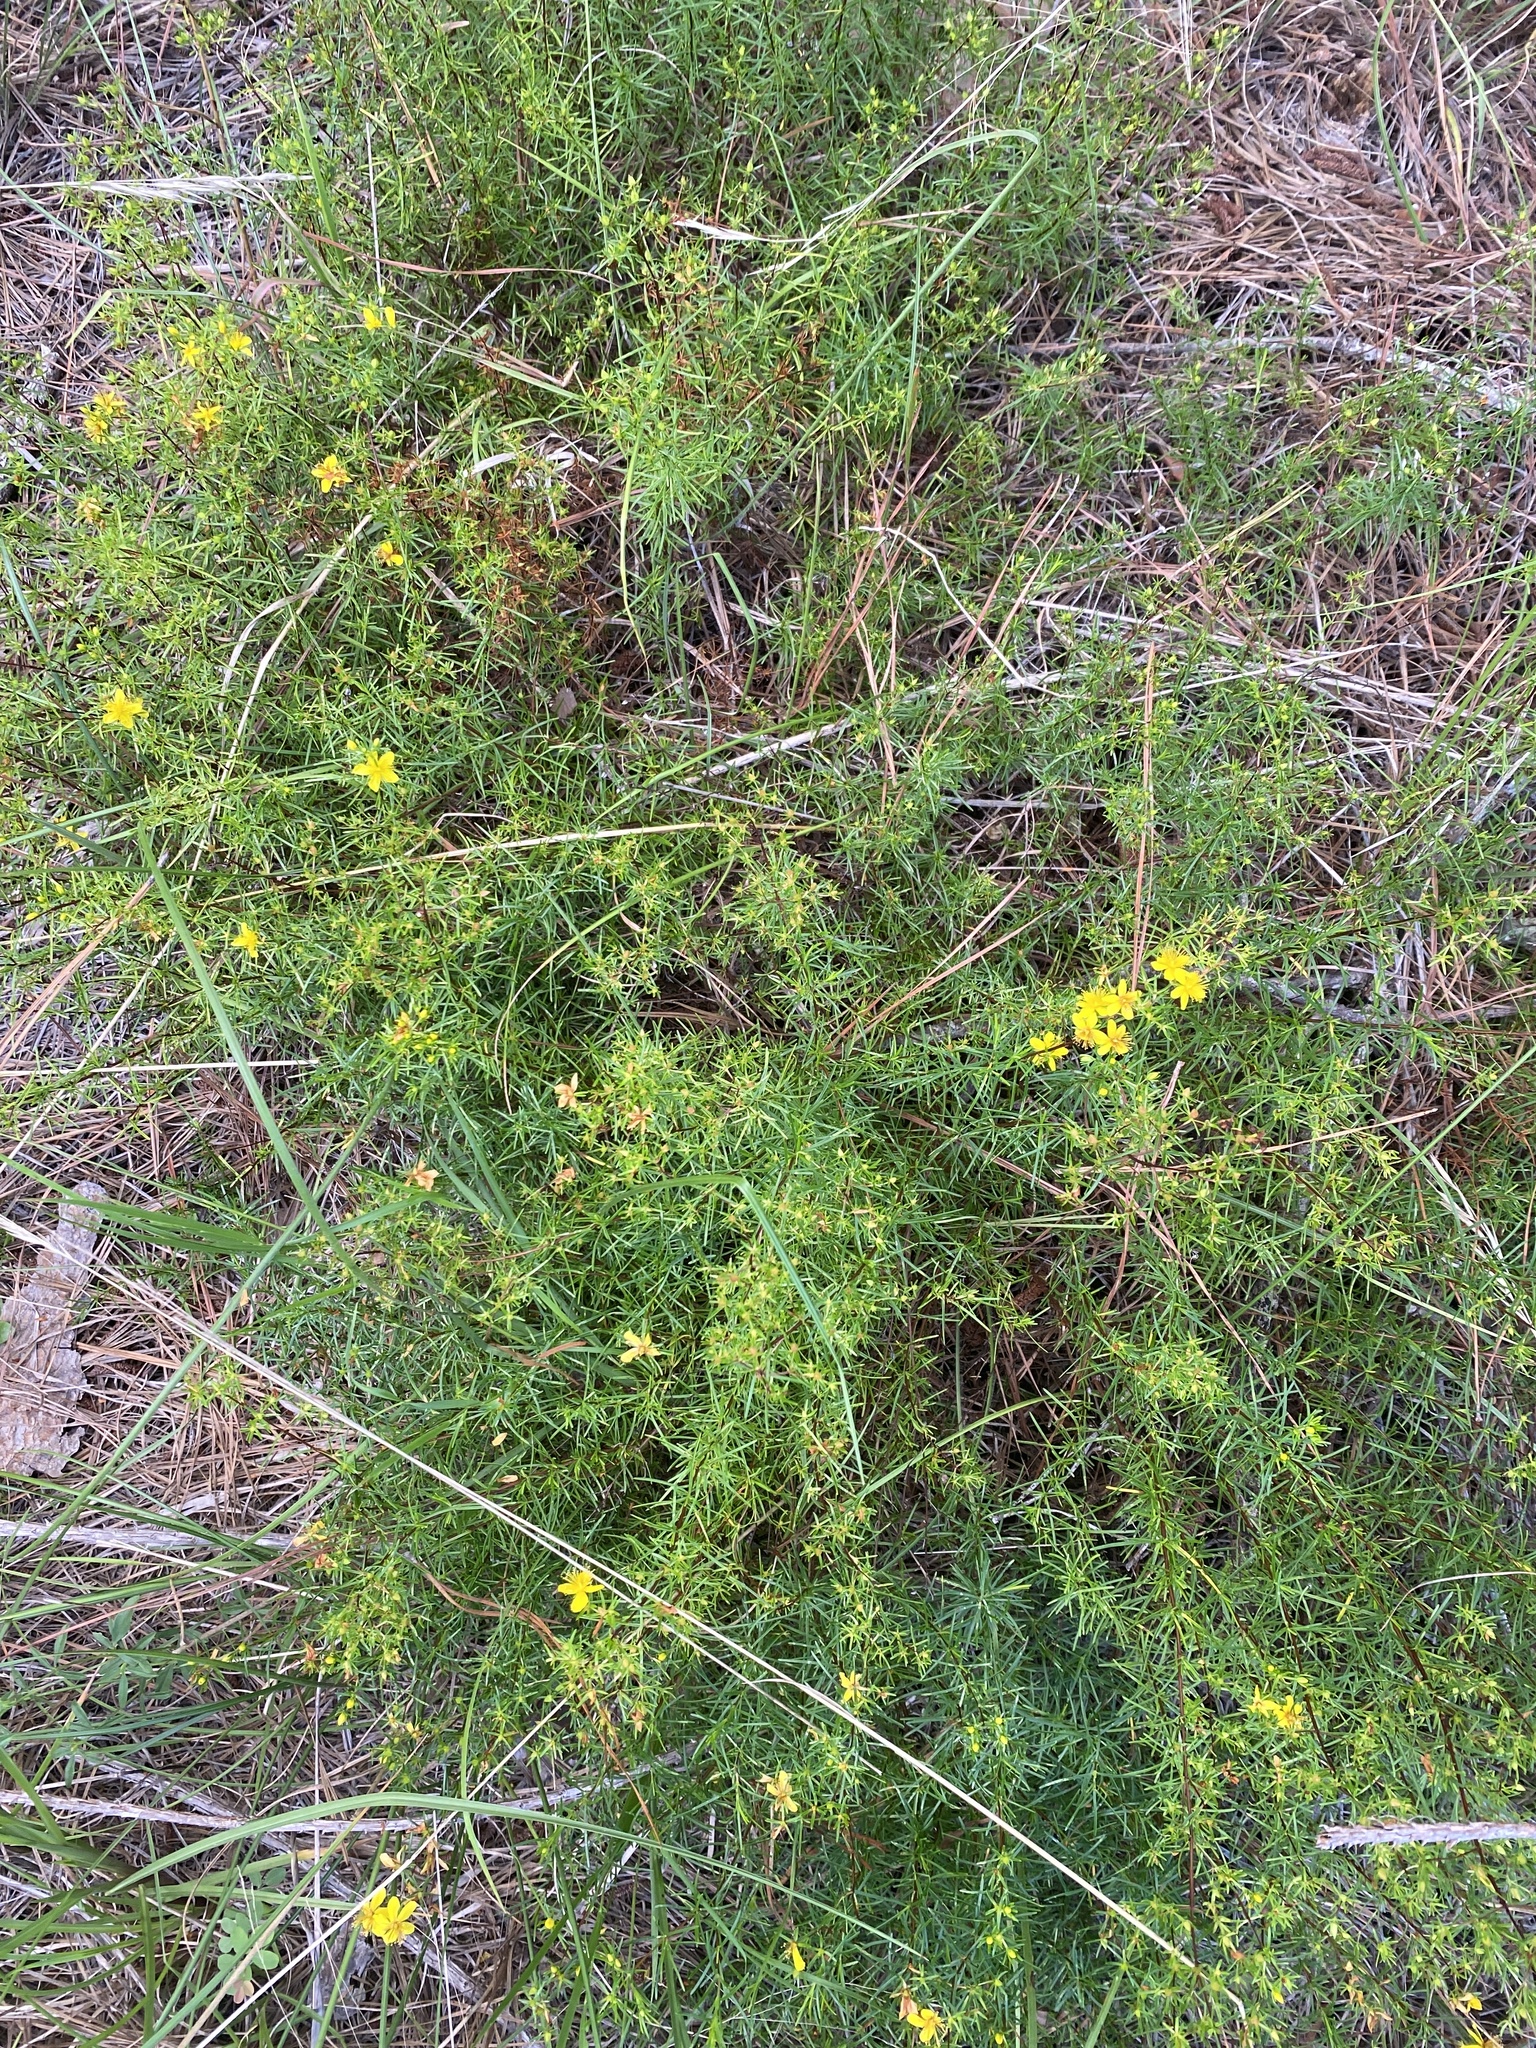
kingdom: Plantae
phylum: Tracheophyta
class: Magnoliopsida
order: Malpighiales
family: Hypericaceae
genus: Hypericum
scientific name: Hypericum lloydii
